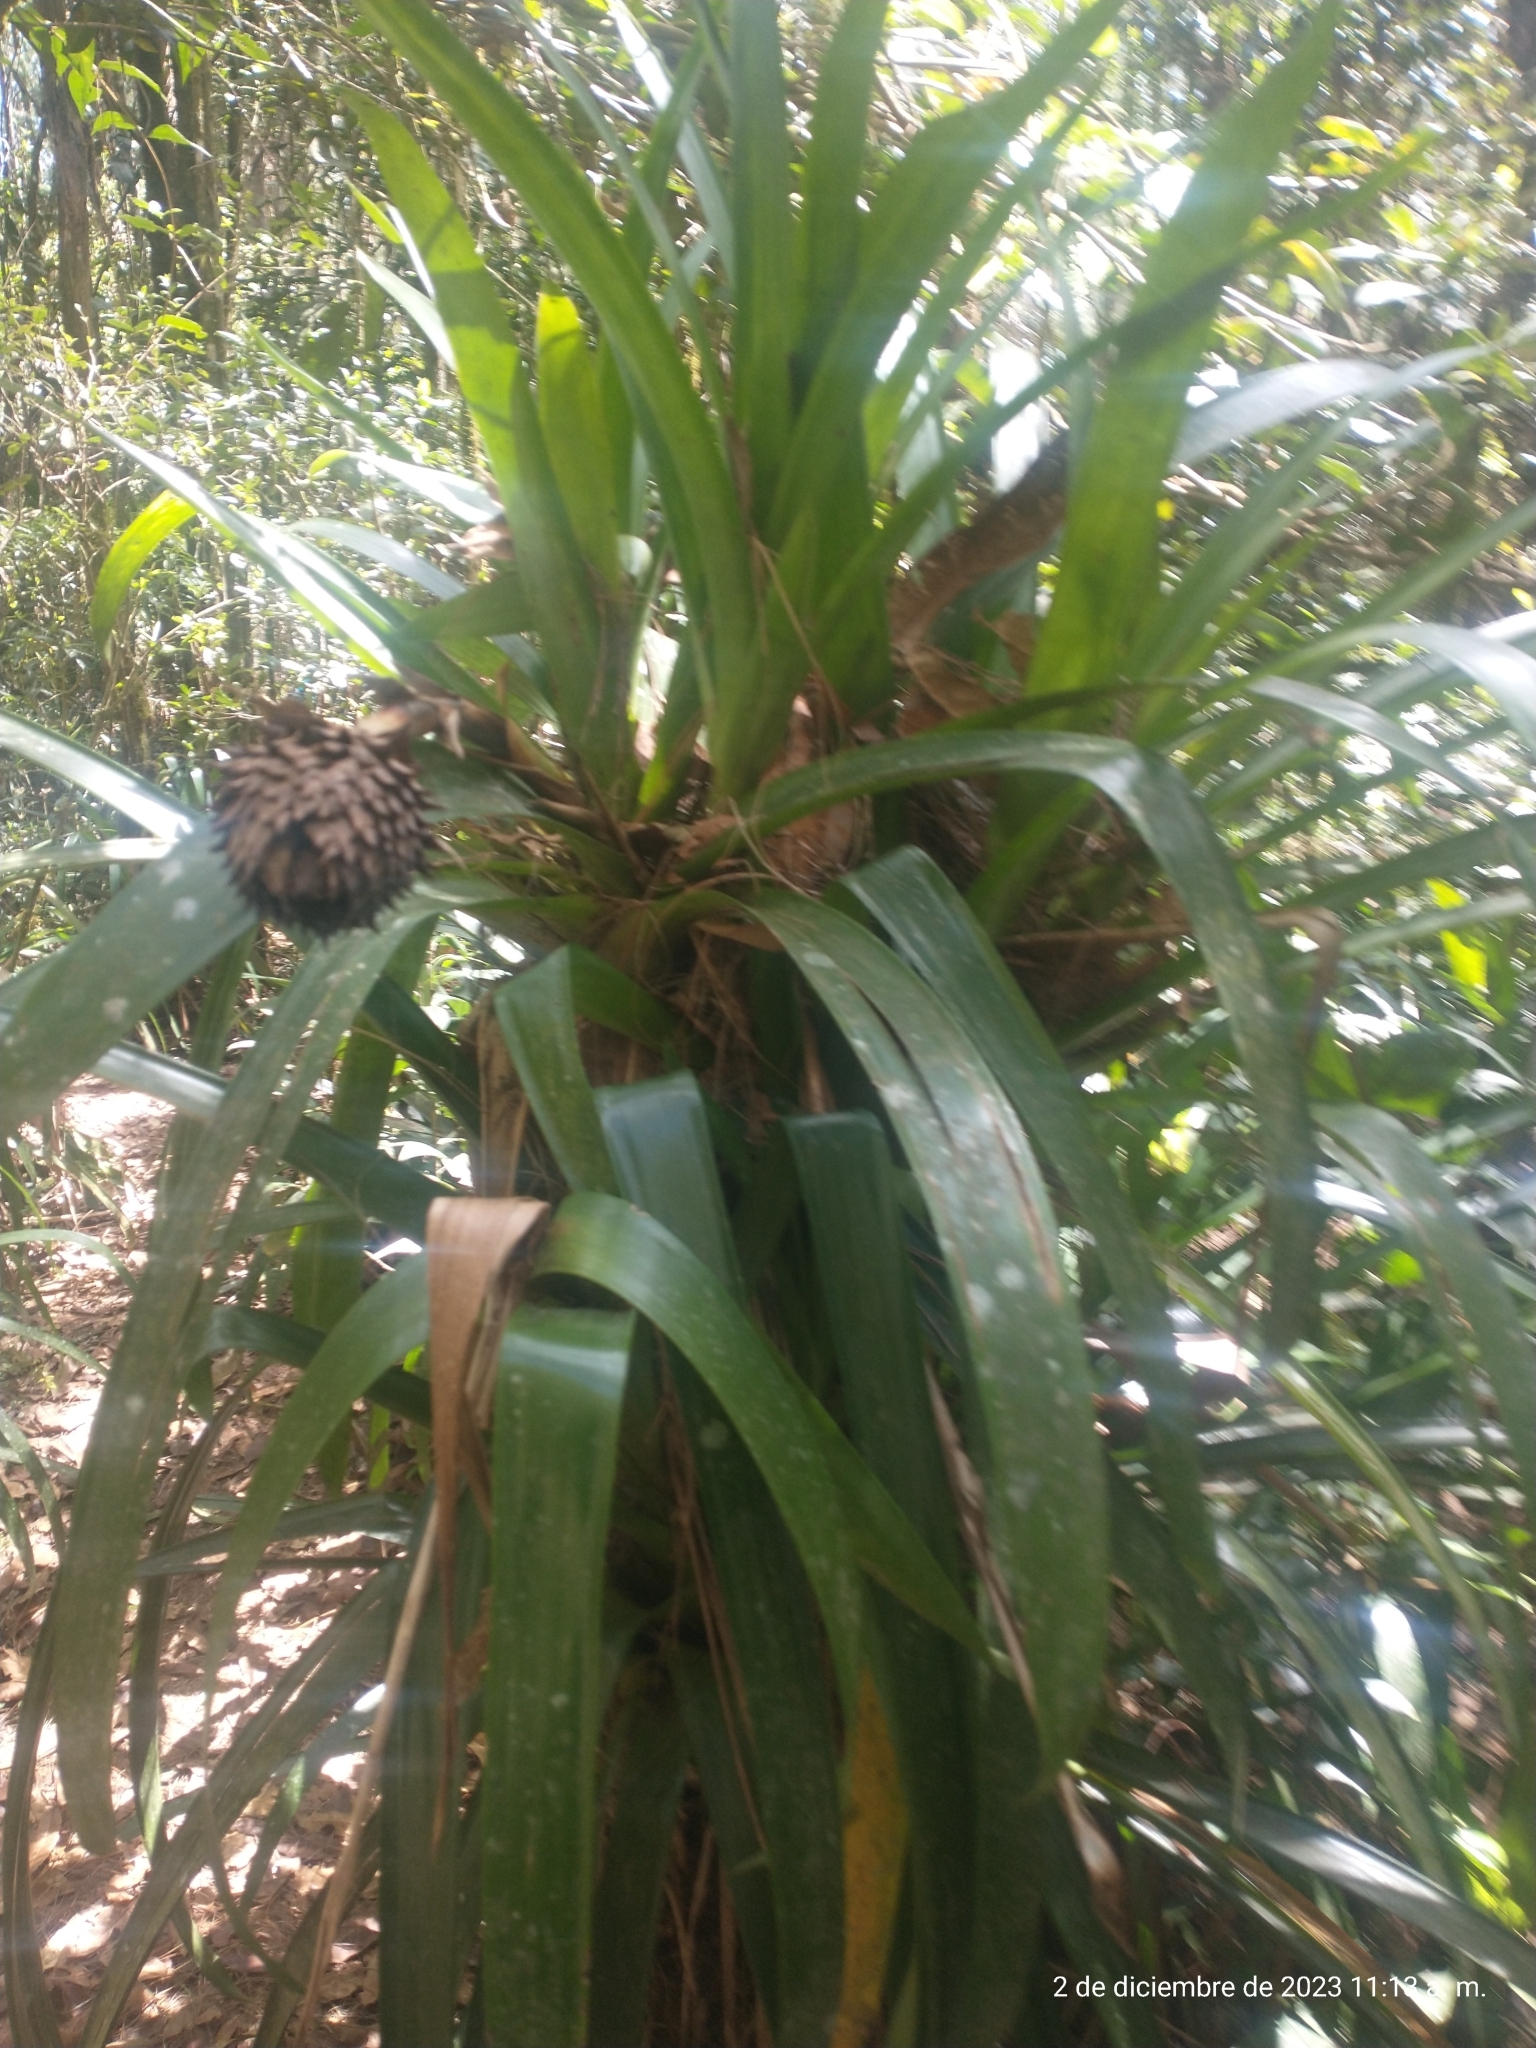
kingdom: Plantae
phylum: Tracheophyta
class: Liliopsida
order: Poales
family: Bromeliaceae
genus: Guzmania
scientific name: Guzmania triangularis
